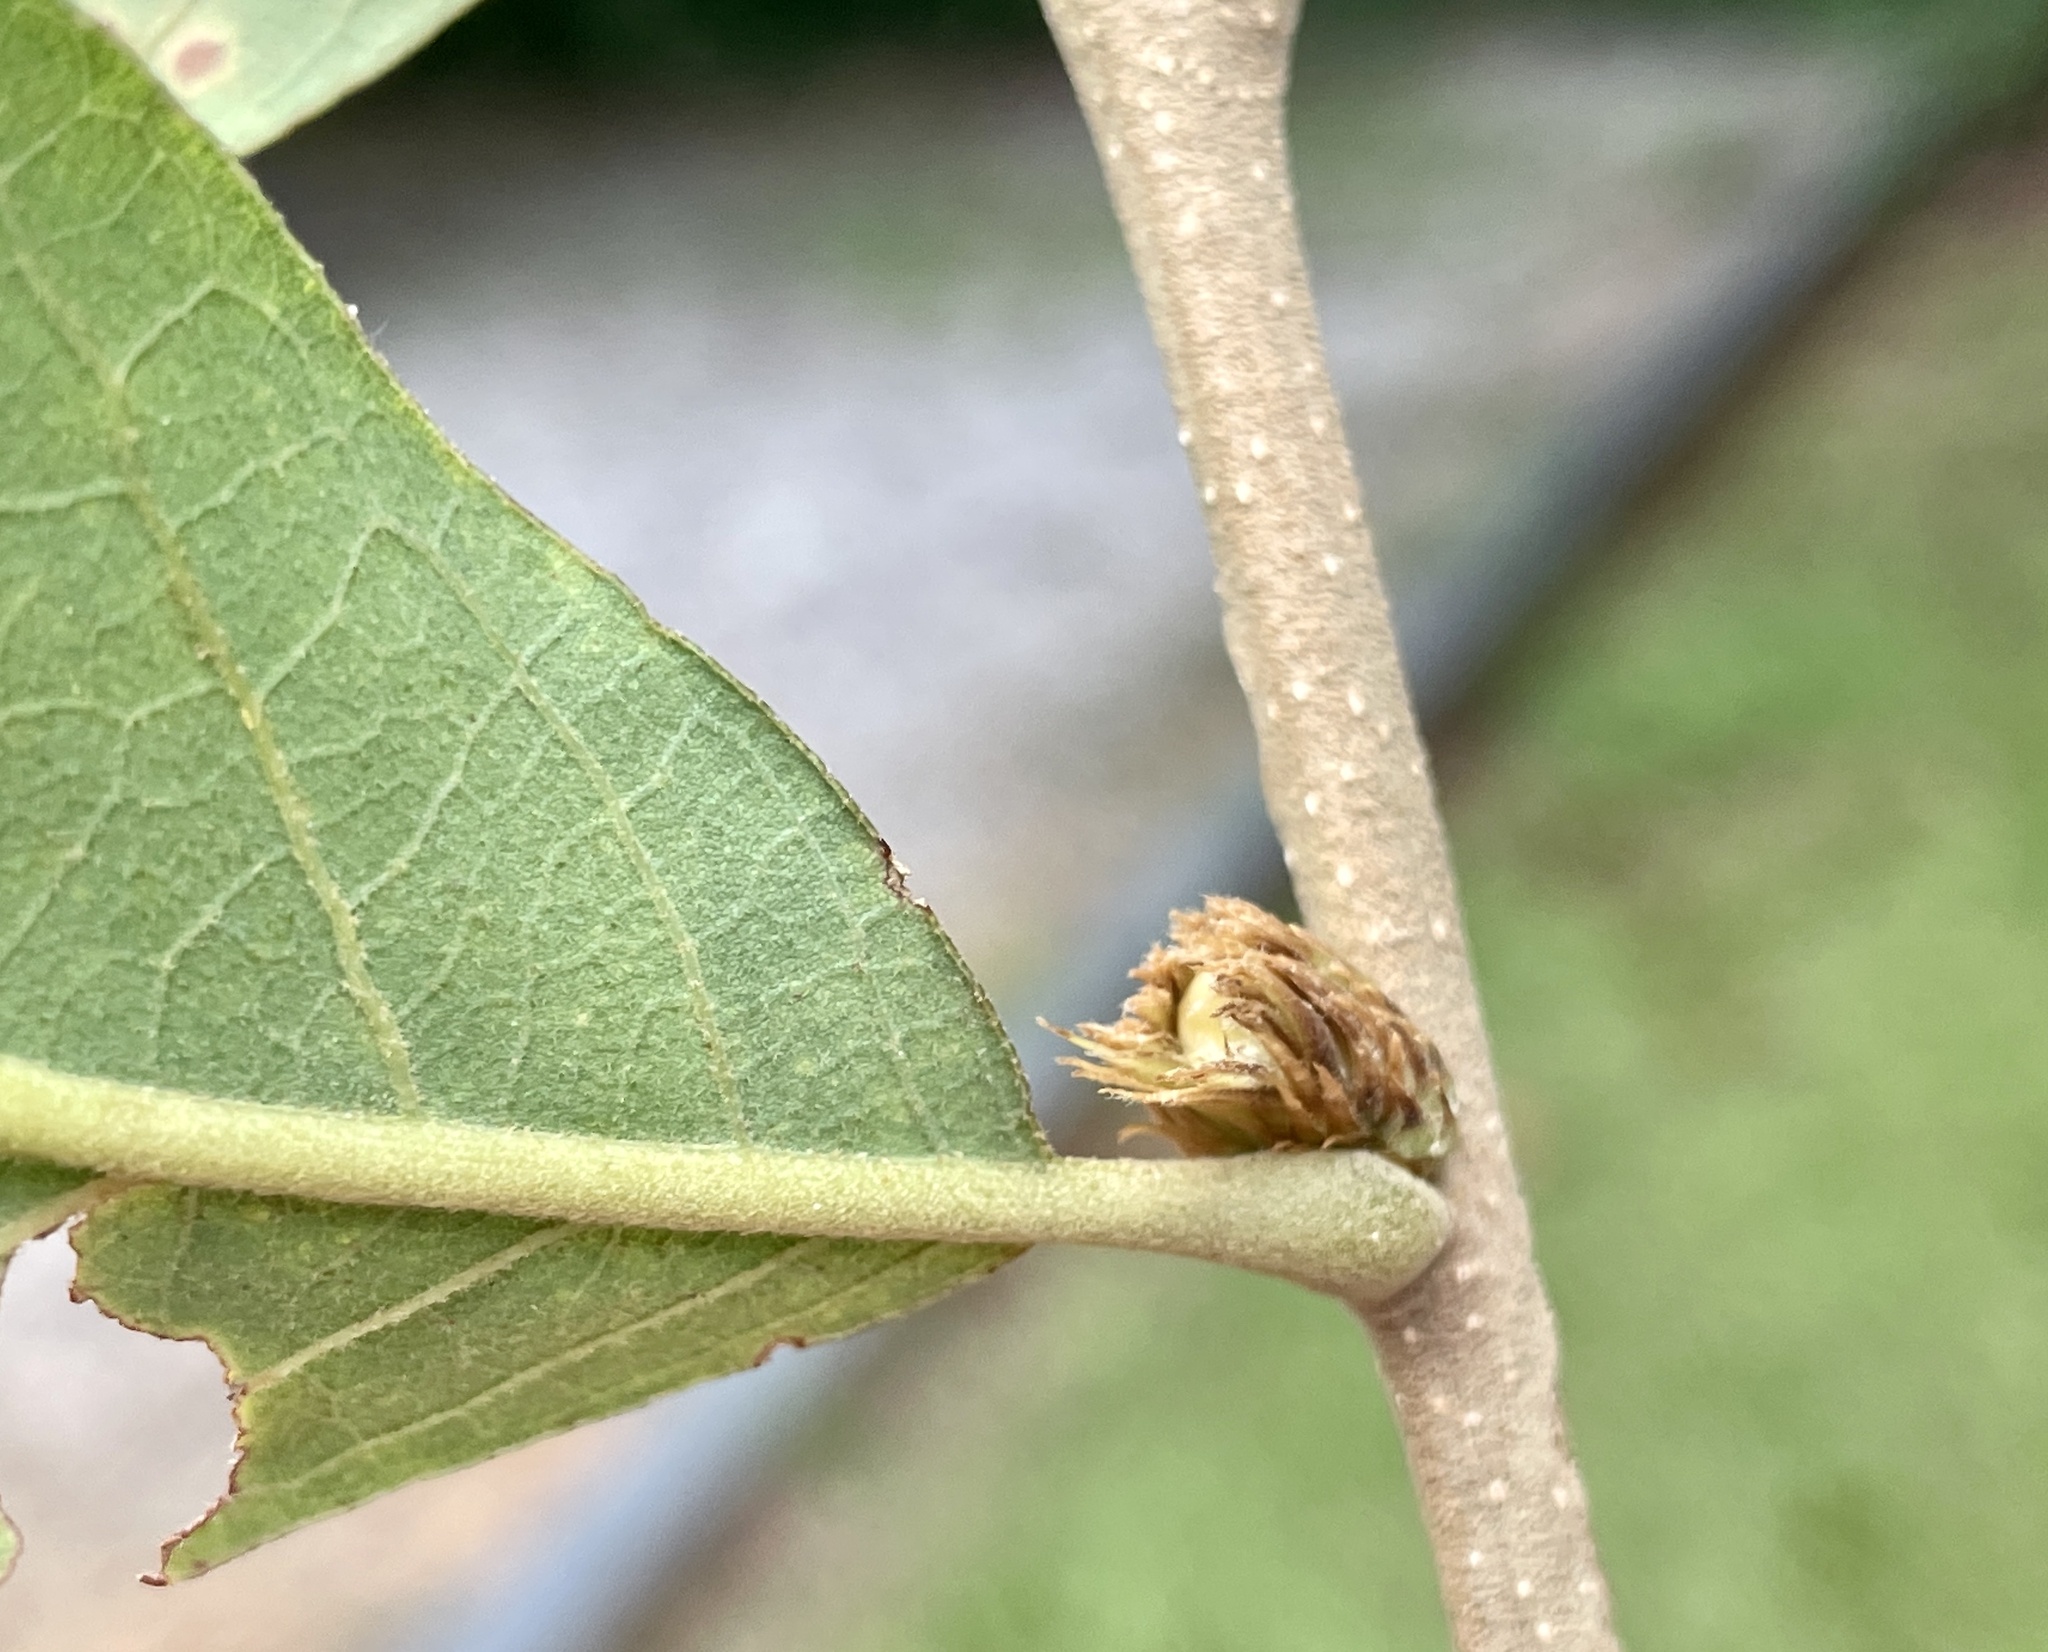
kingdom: Animalia
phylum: Arthropoda
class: Insecta
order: Hymenoptera
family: Cynipidae
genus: Andricus
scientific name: Andricus
